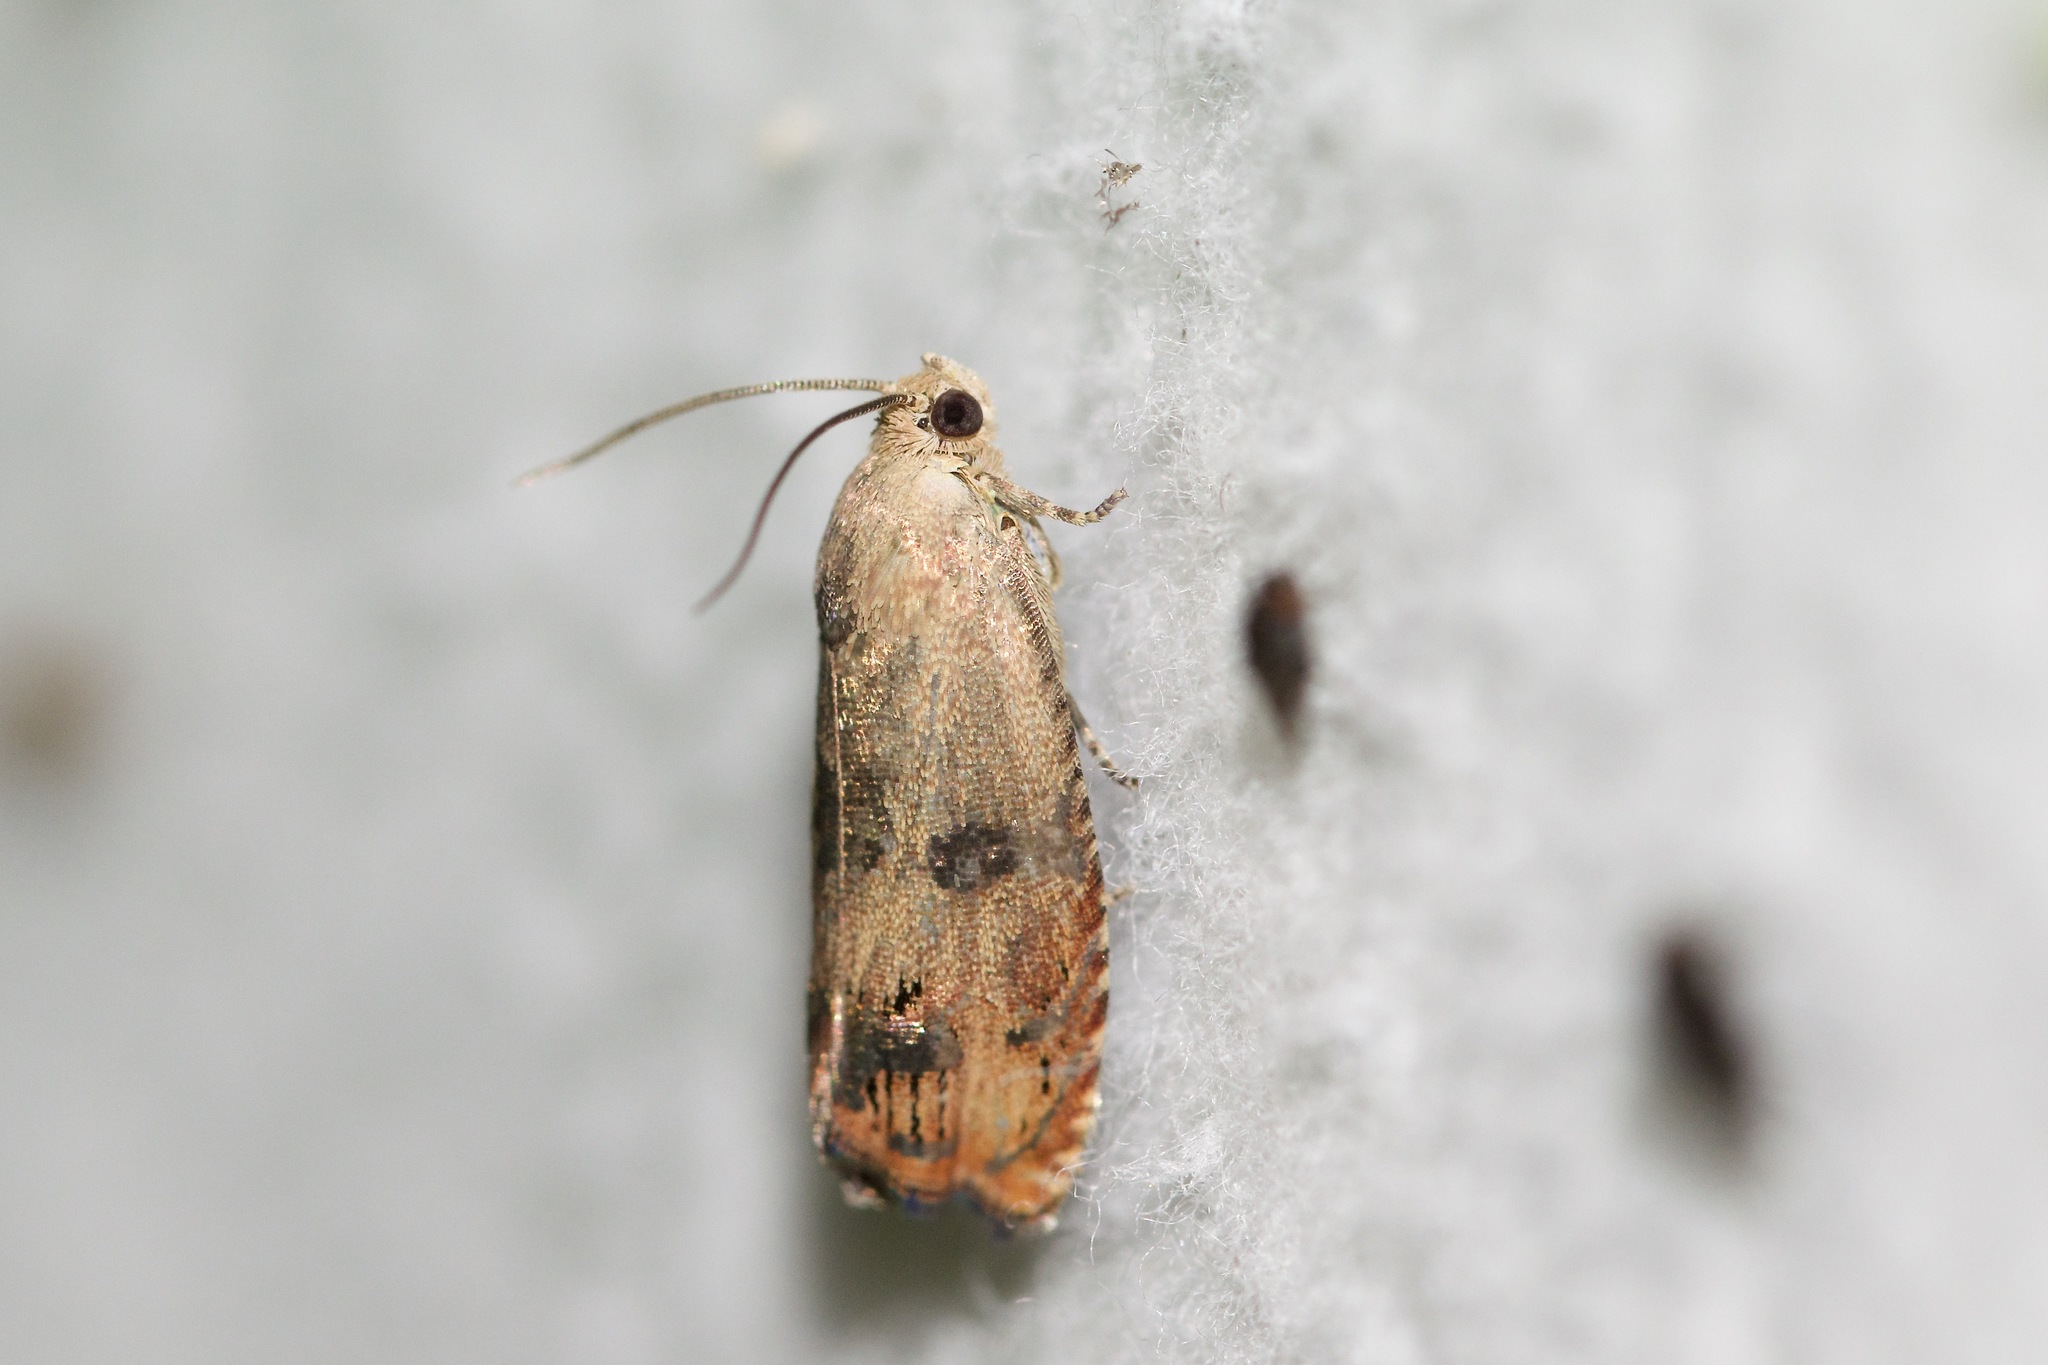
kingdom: Animalia
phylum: Arthropoda
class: Insecta
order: Lepidoptera
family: Tortricidae
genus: Cydia
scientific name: Cydia latiferreana
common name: Filbertworm moth
